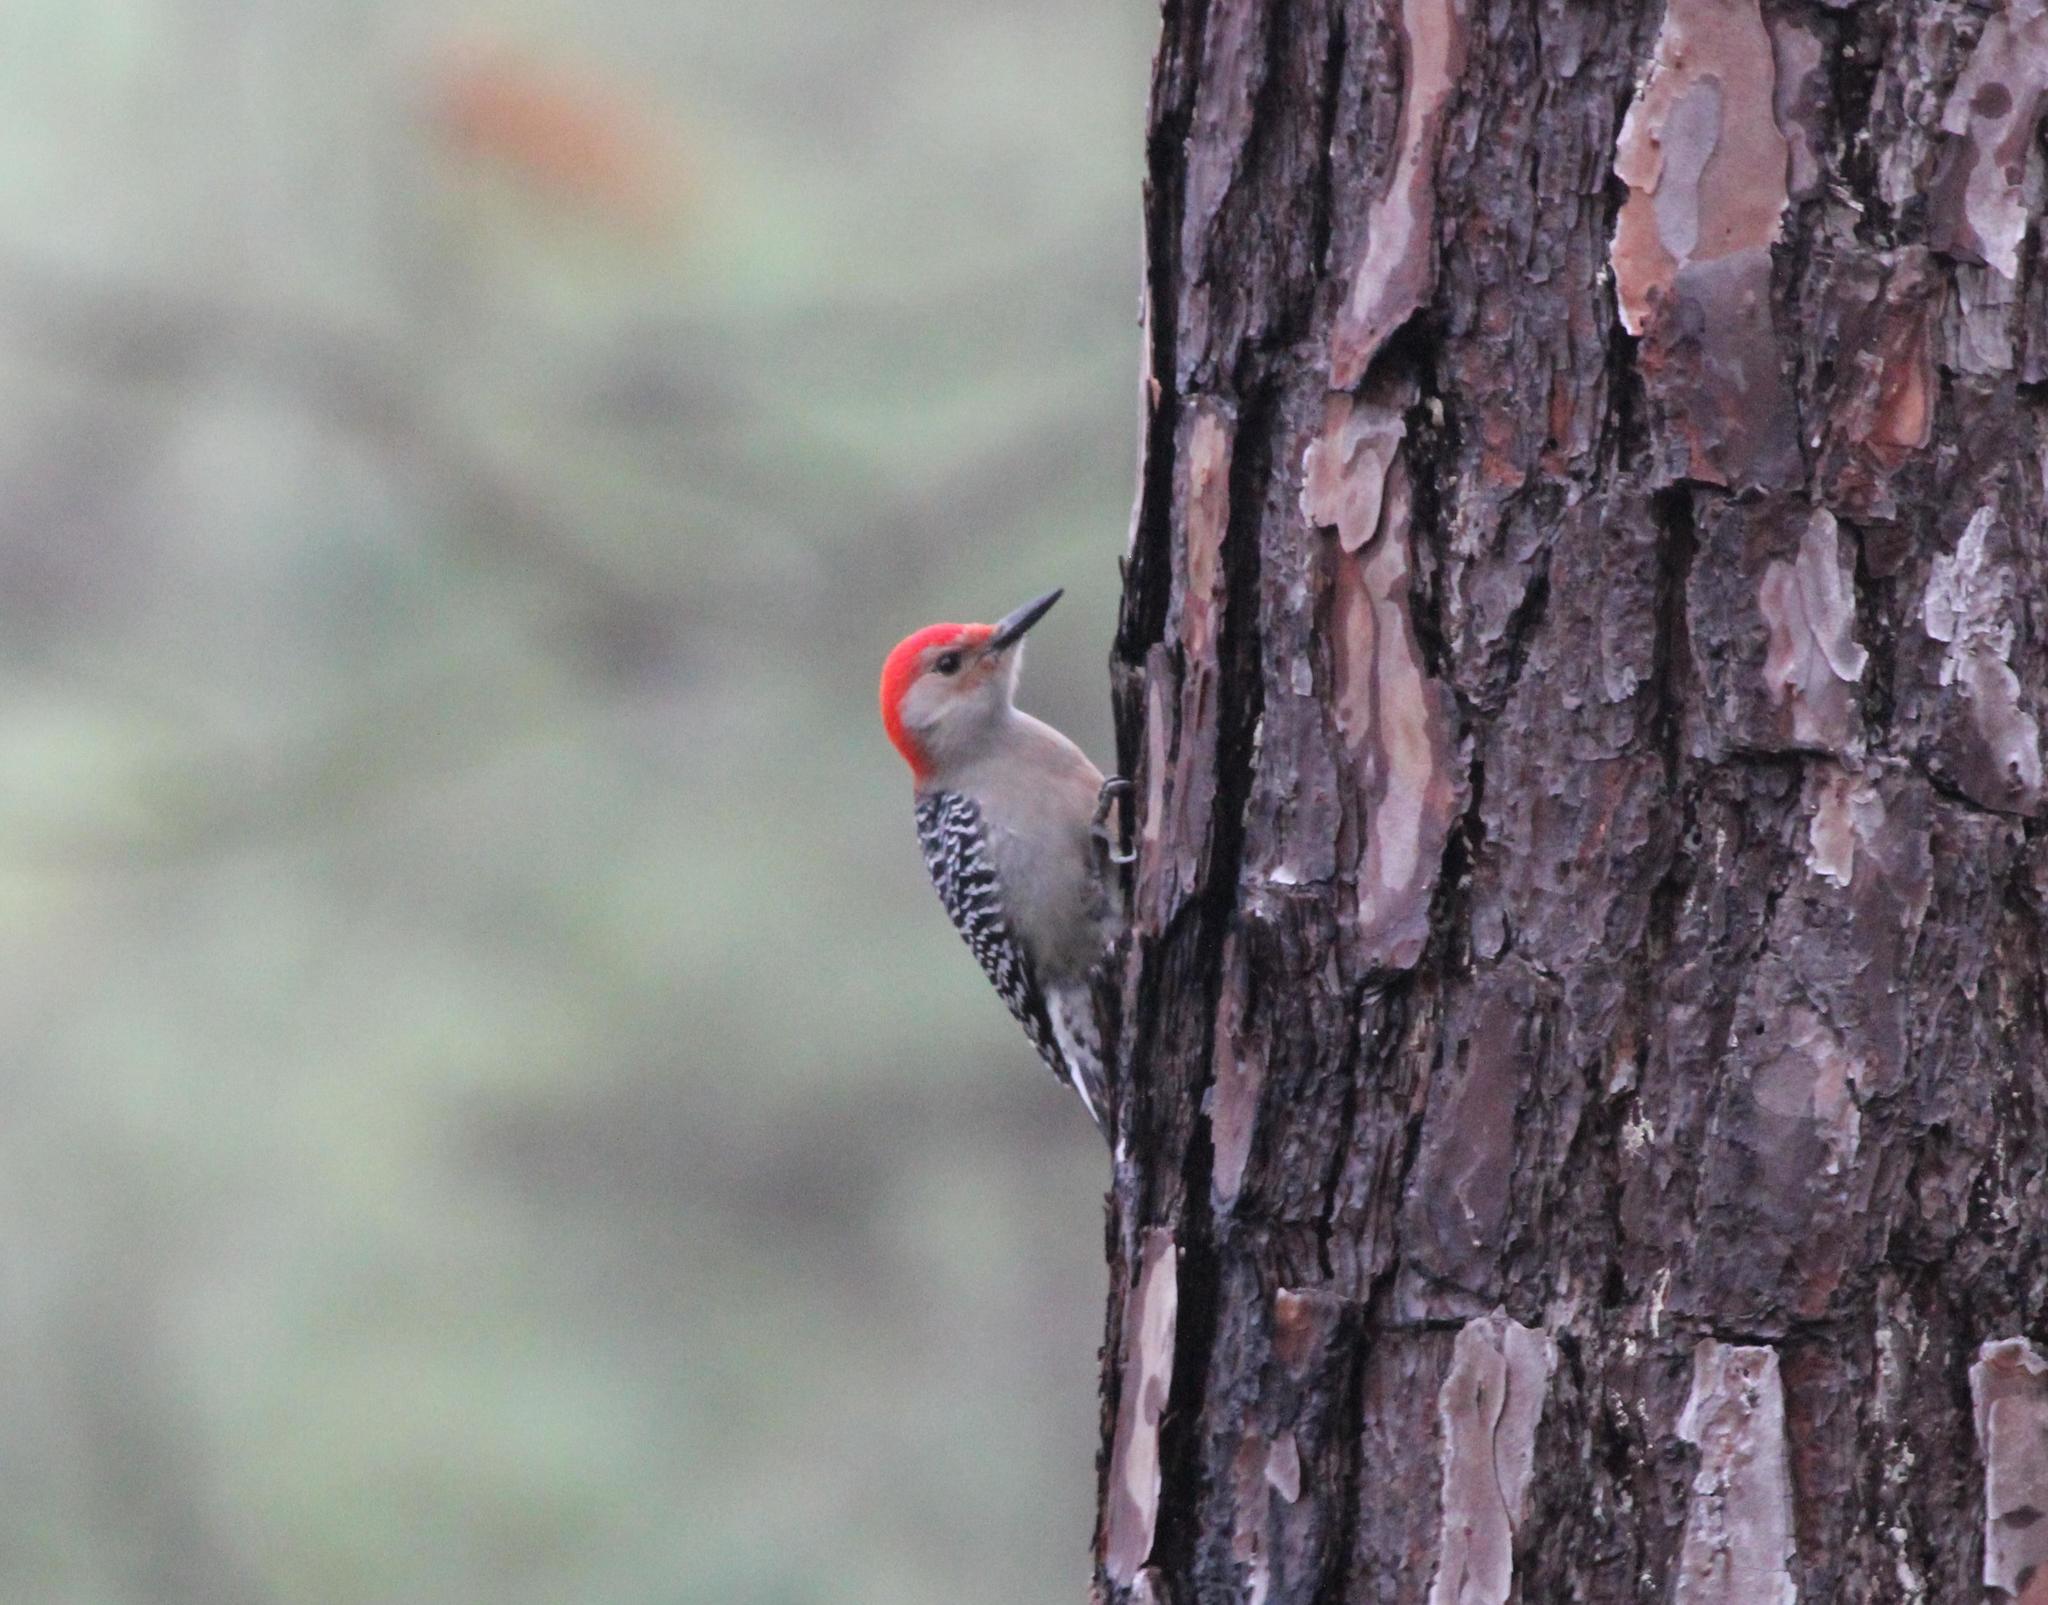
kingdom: Animalia
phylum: Chordata
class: Aves
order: Piciformes
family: Picidae
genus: Melanerpes
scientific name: Melanerpes carolinus
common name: Red-bellied woodpecker
